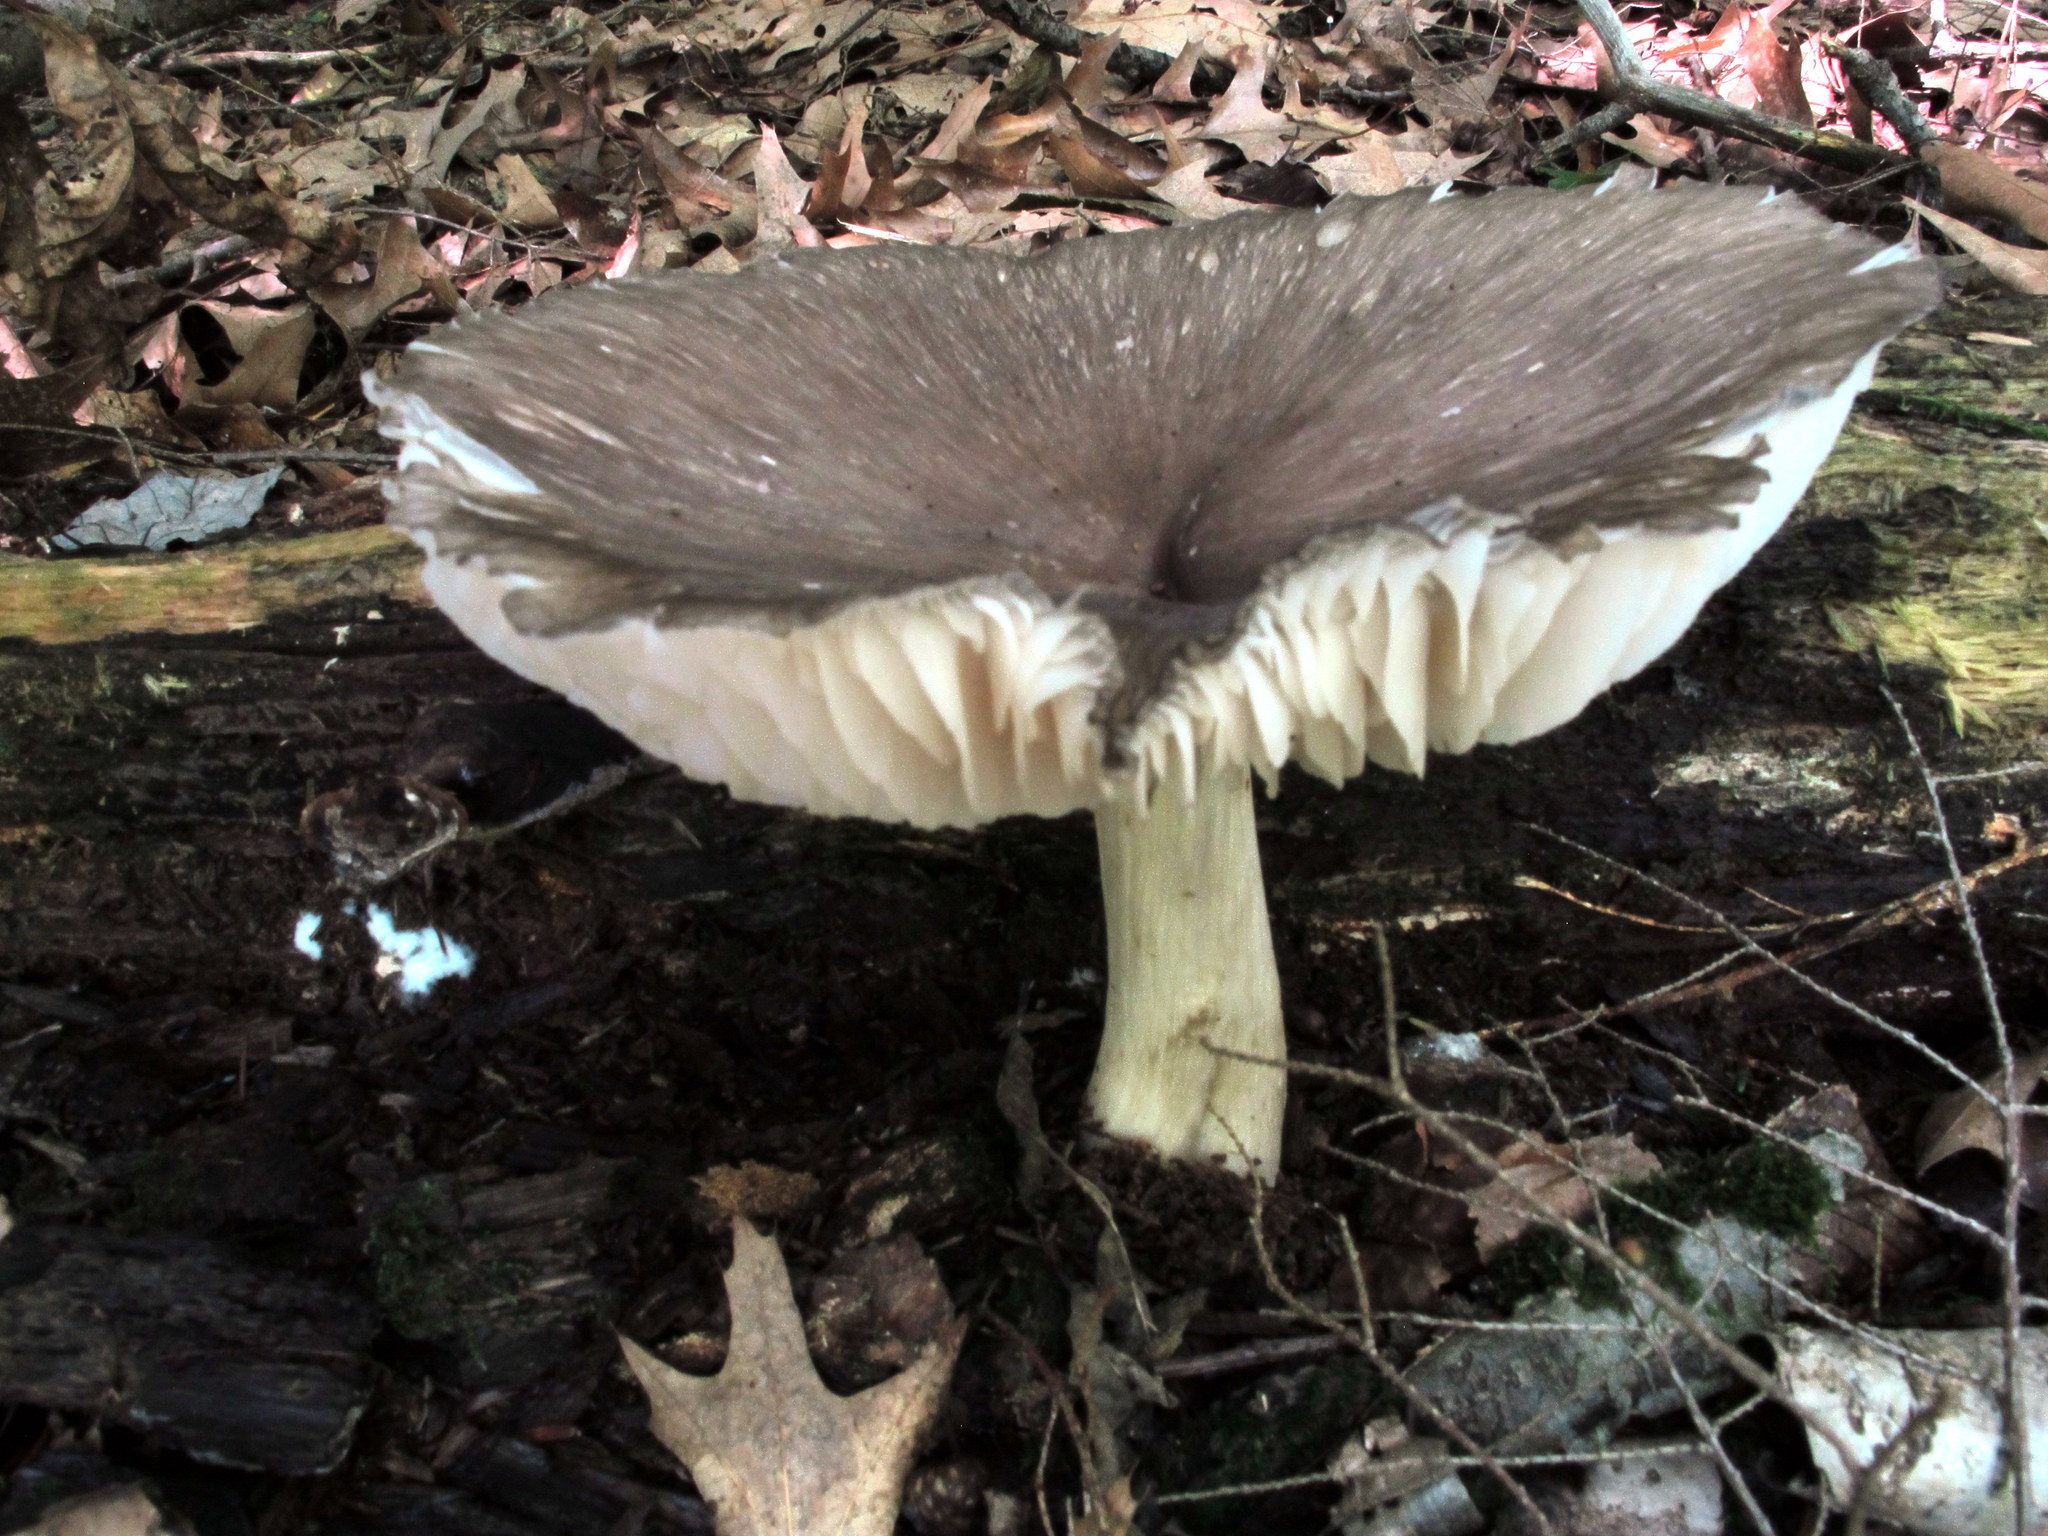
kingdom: Fungi
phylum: Basidiomycota
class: Agaricomycetes
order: Agaricales
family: Tricholomataceae
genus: Megacollybia
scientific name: Megacollybia rodmanii
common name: Eastern american platterful mushroom
